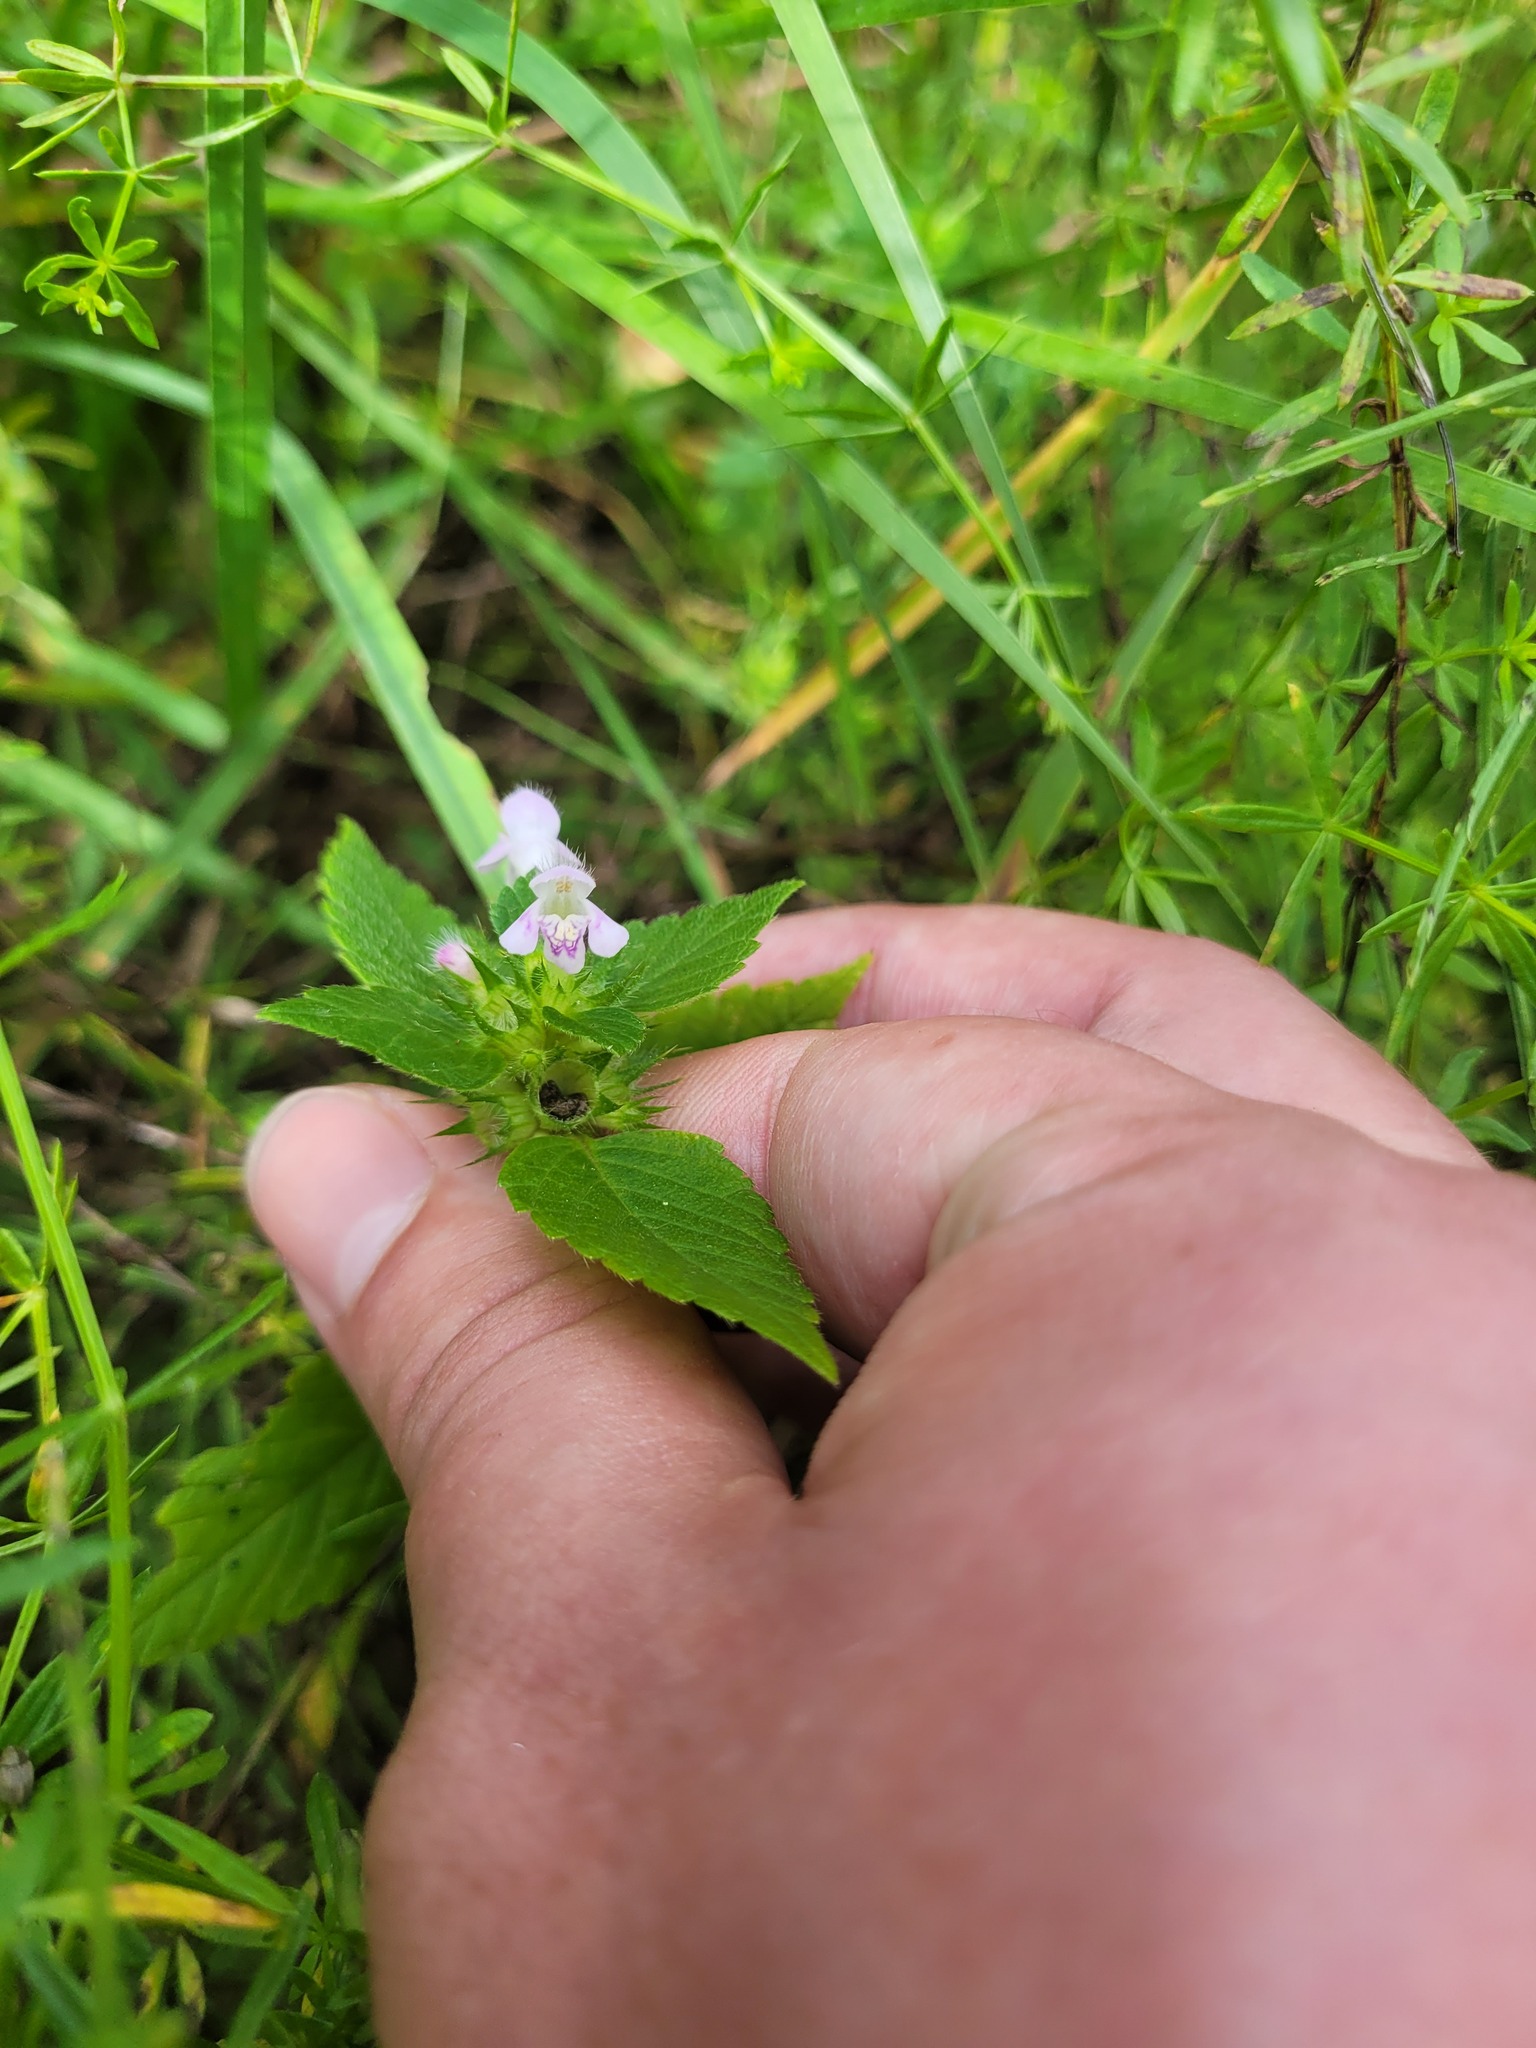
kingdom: Plantae
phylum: Tracheophyta
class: Magnoliopsida
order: Lamiales
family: Lamiaceae
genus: Galeopsis
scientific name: Galeopsis tetrahit
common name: Common hemp-nettle
